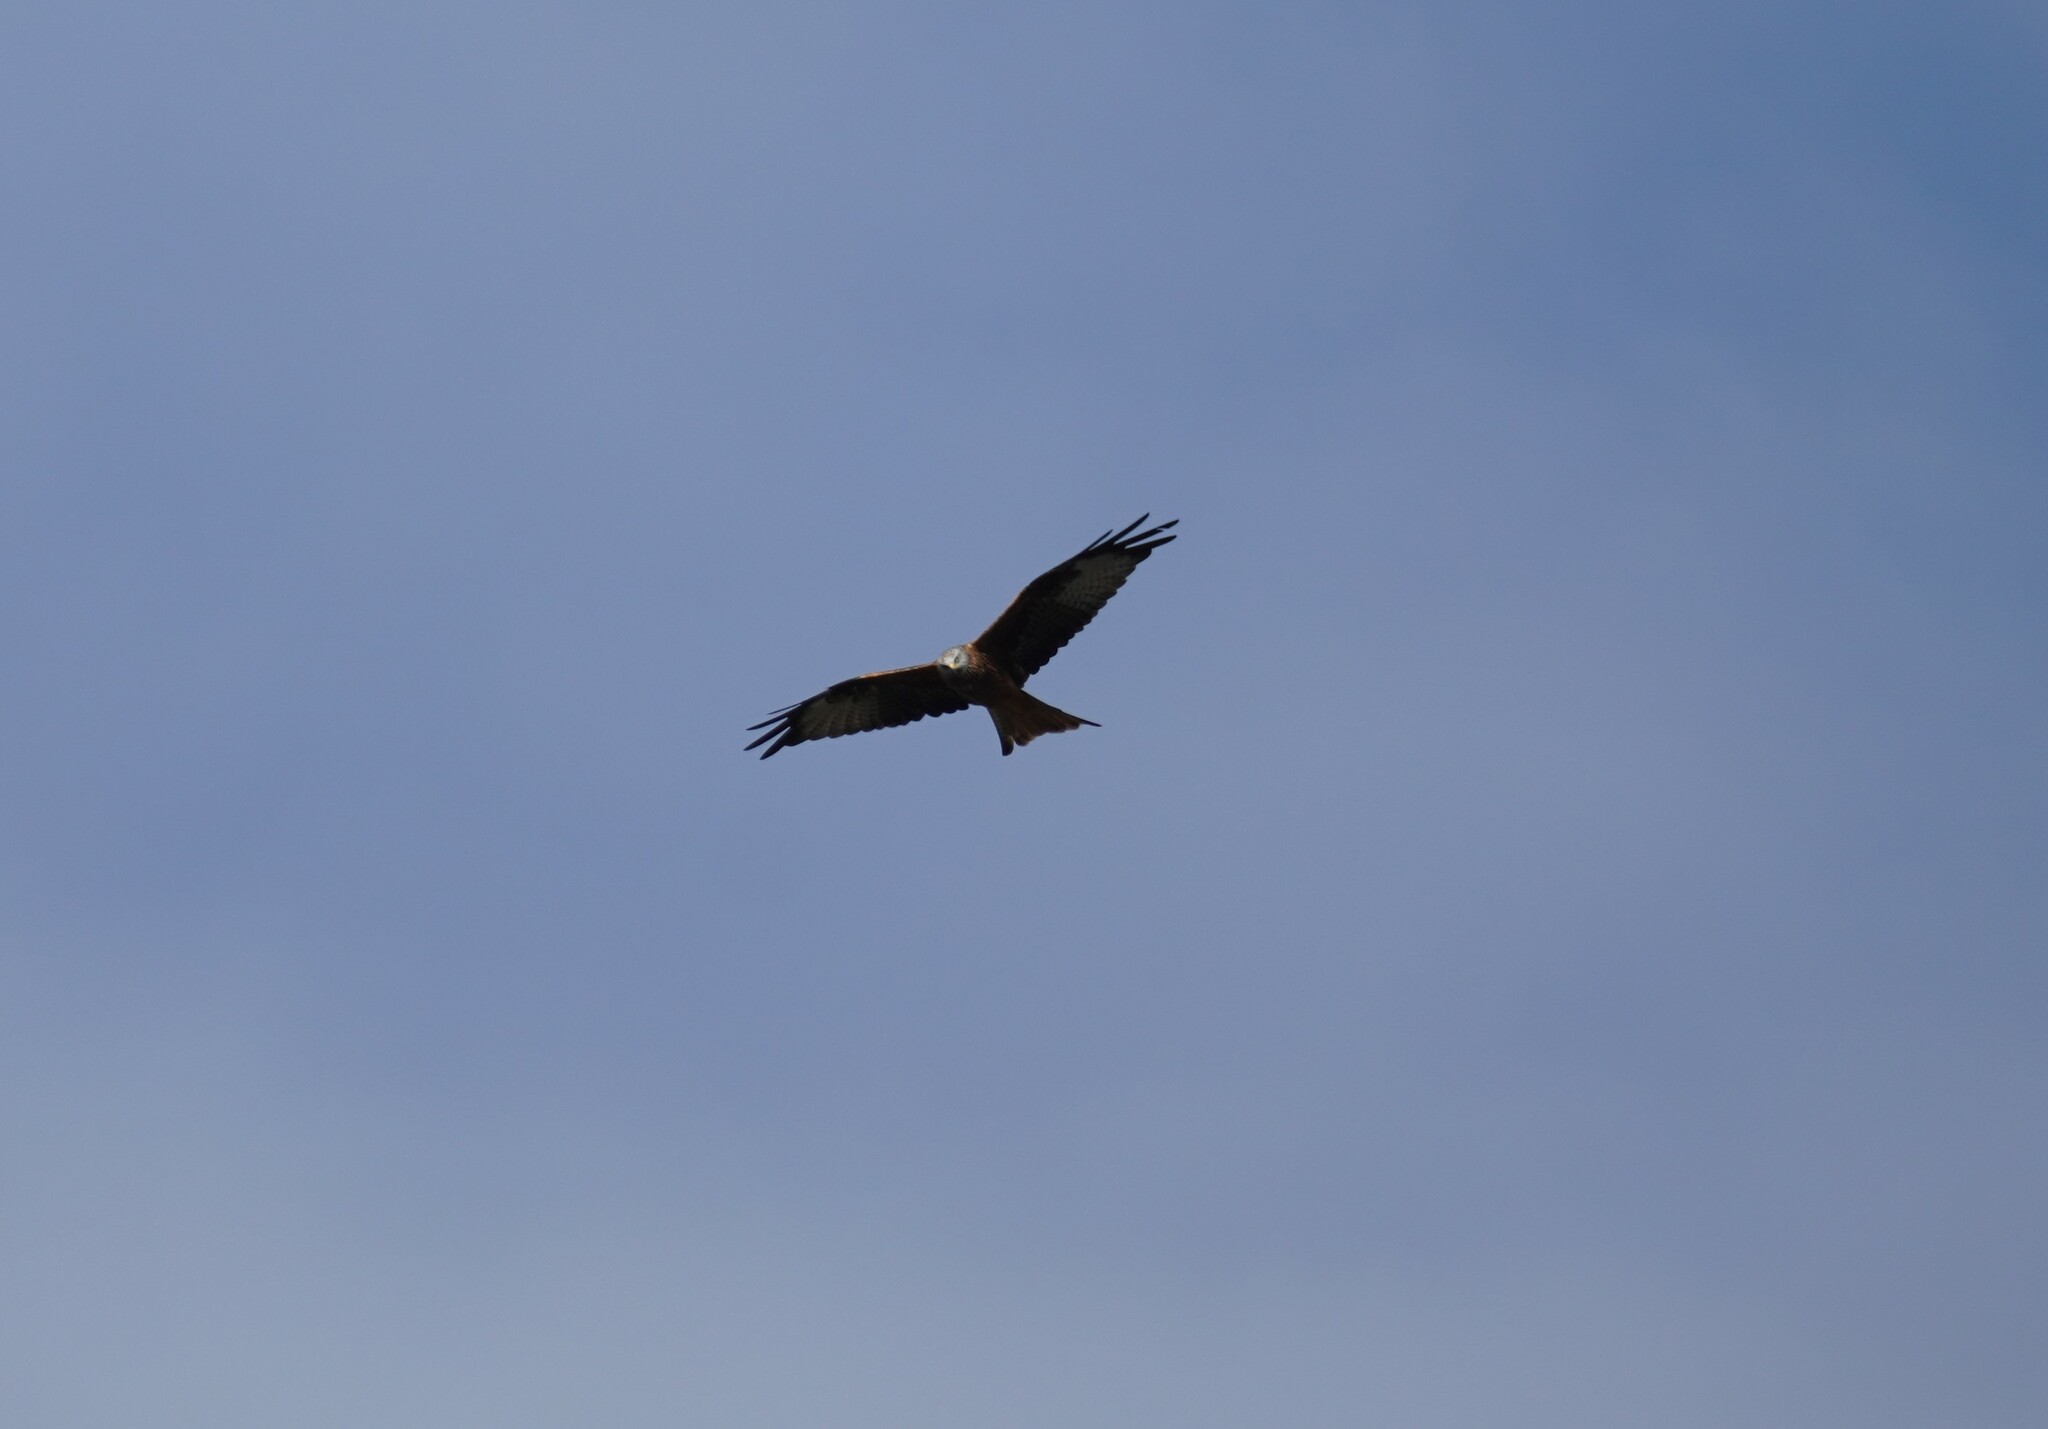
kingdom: Animalia
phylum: Chordata
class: Aves
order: Accipitriformes
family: Accipitridae
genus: Milvus
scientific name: Milvus milvus
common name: Red kite
